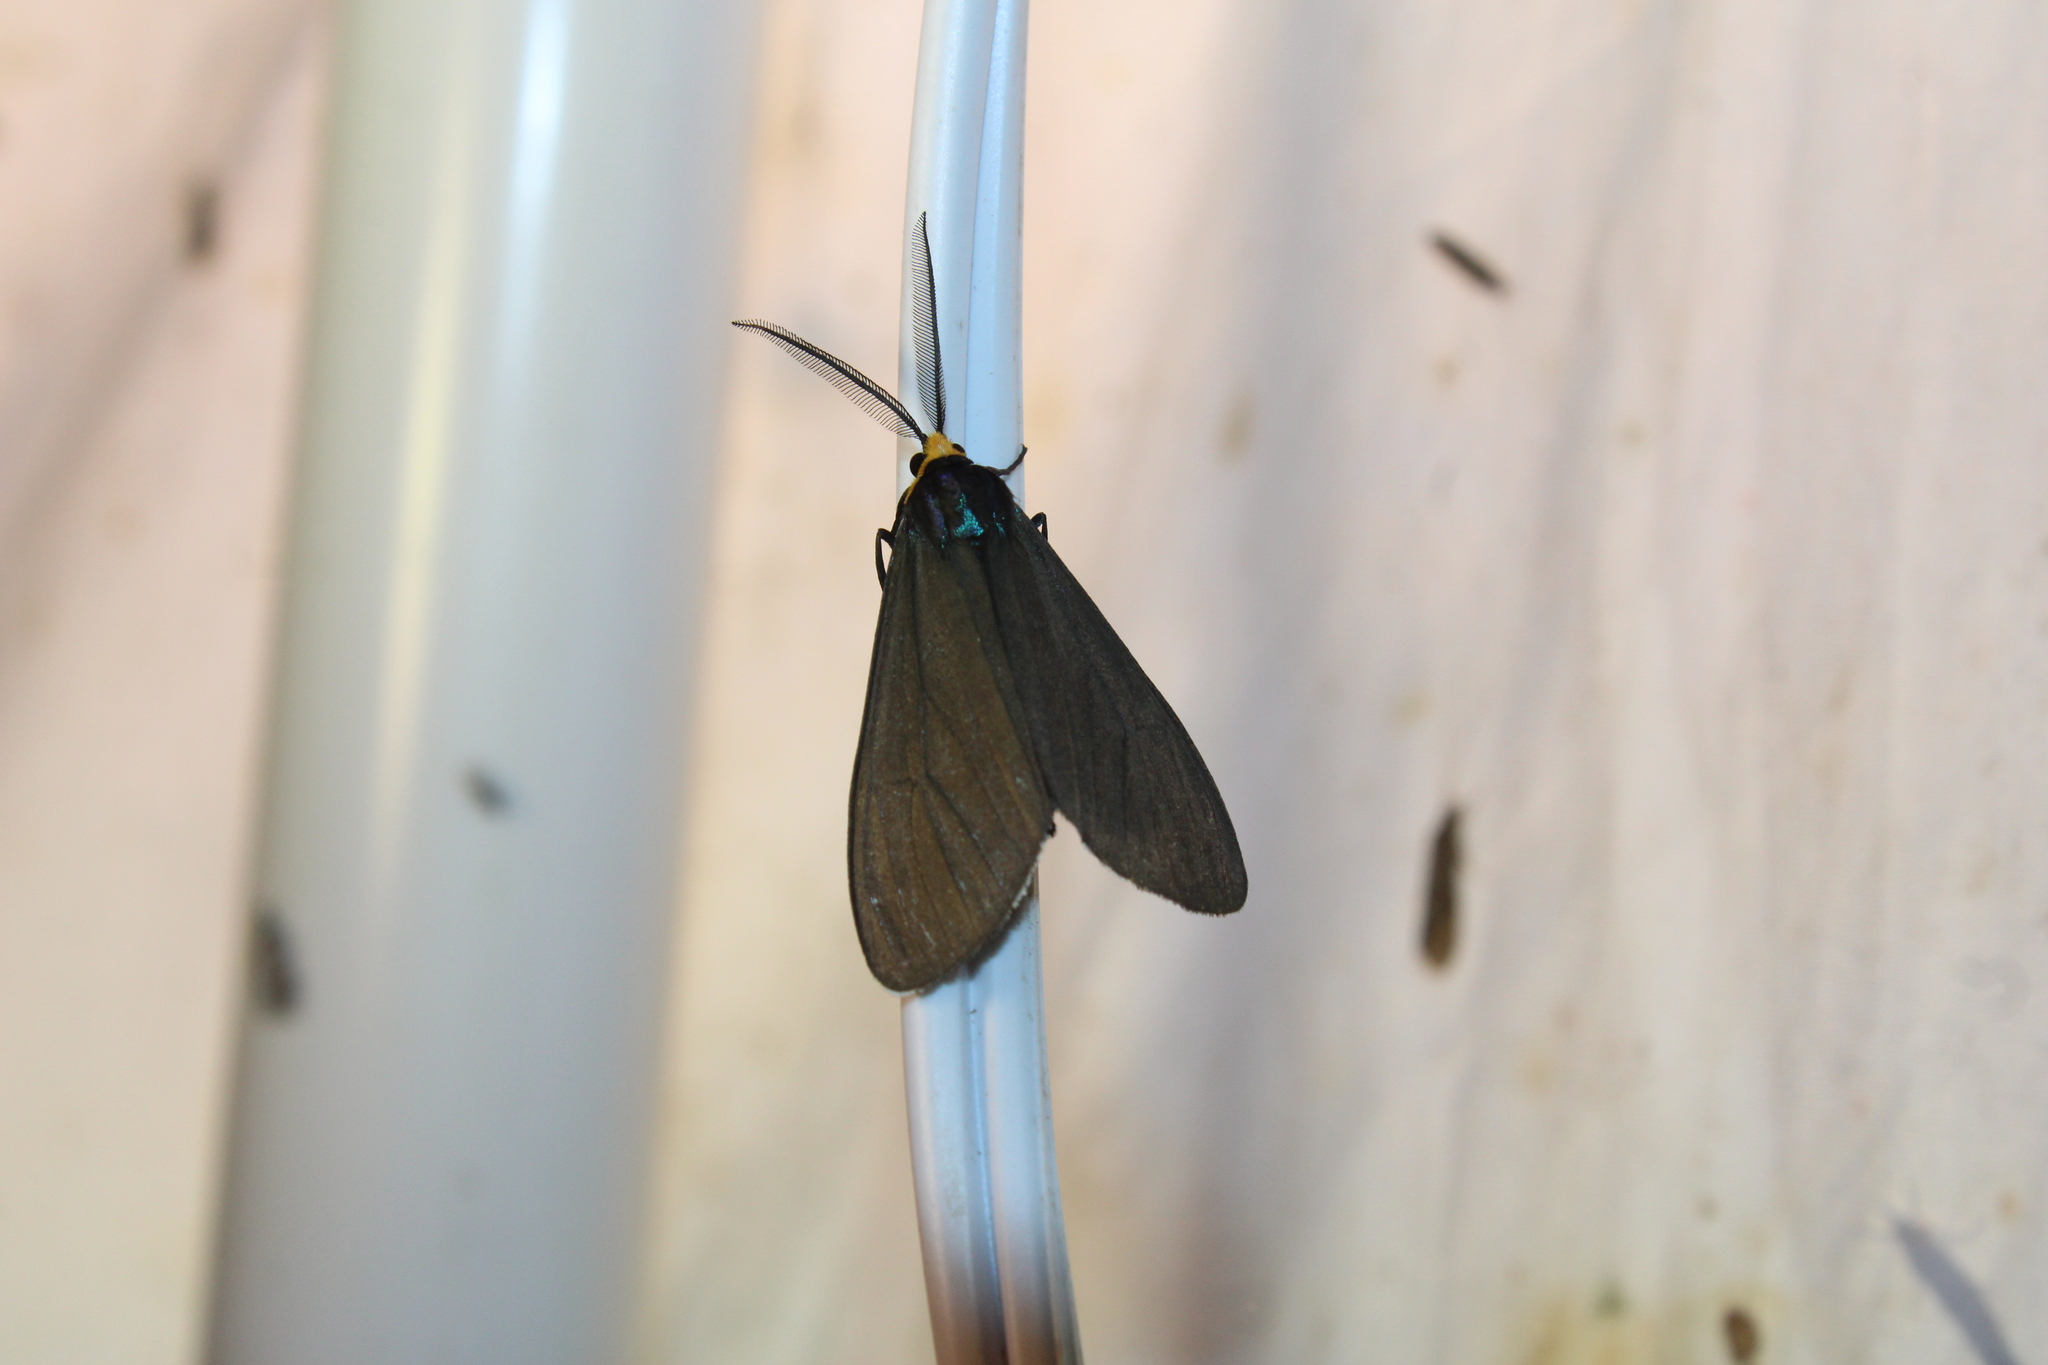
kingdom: Animalia
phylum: Arthropoda
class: Insecta
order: Lepidoptera
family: Erebidae
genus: Ctenucha
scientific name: Ctenucha virginica
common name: Virginia ctenucha moth
